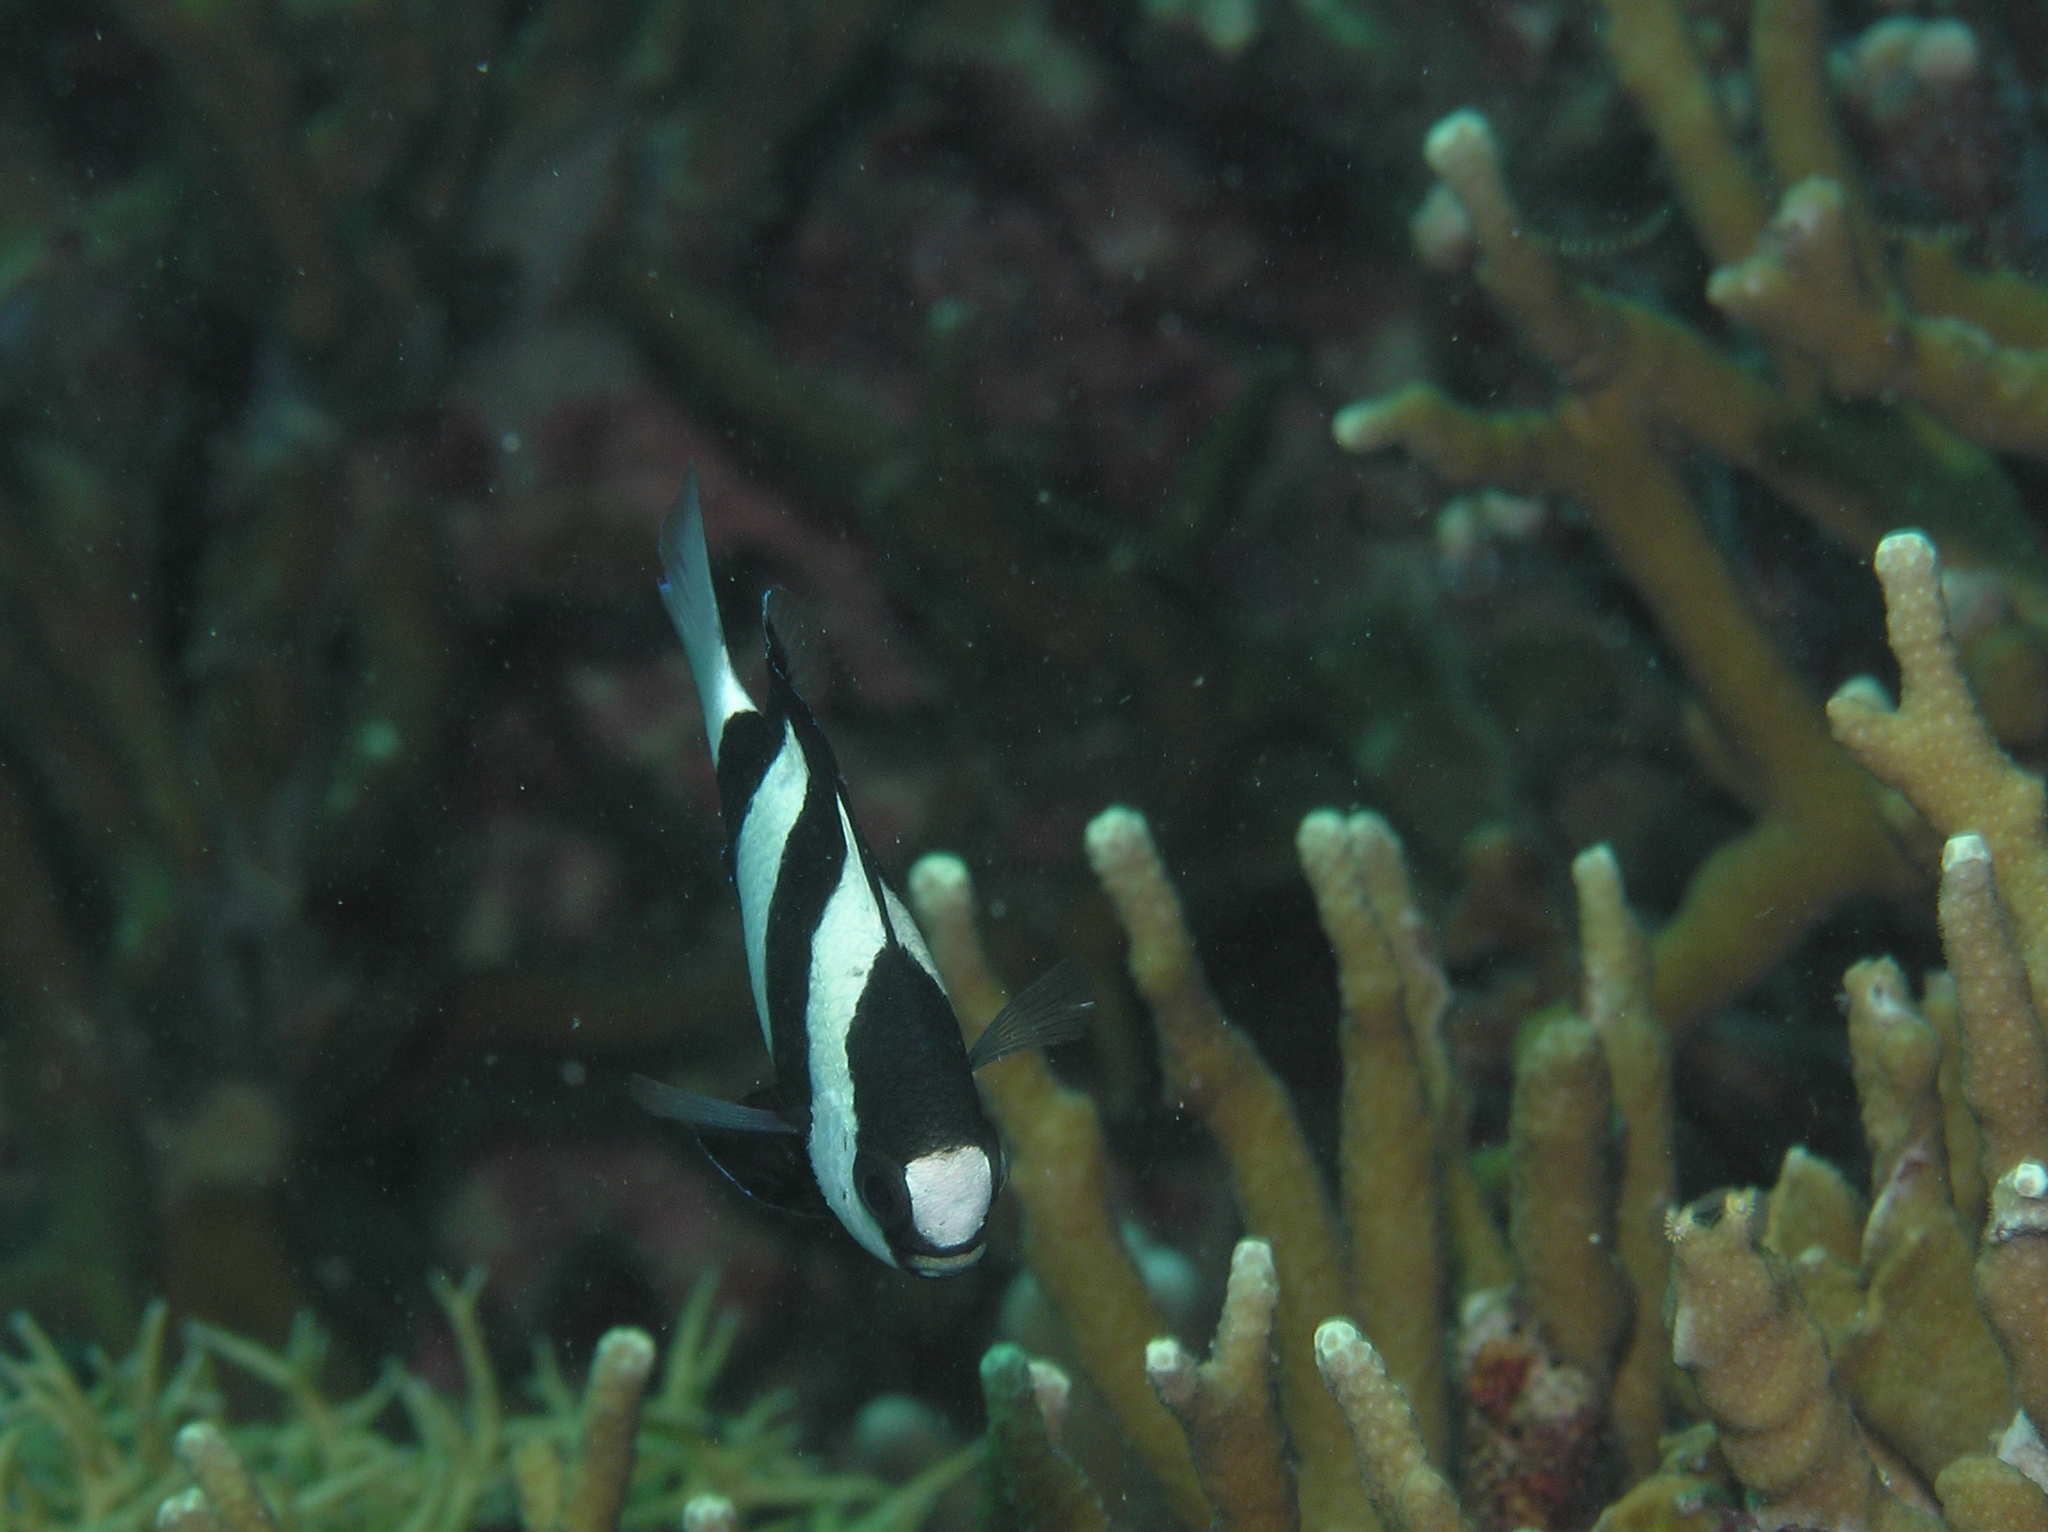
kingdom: Animalia
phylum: Chordata
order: Perciformes
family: Pomacentridae
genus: Dascyllus
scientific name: Dascyllus aruanus
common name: Humbug dascyllus
